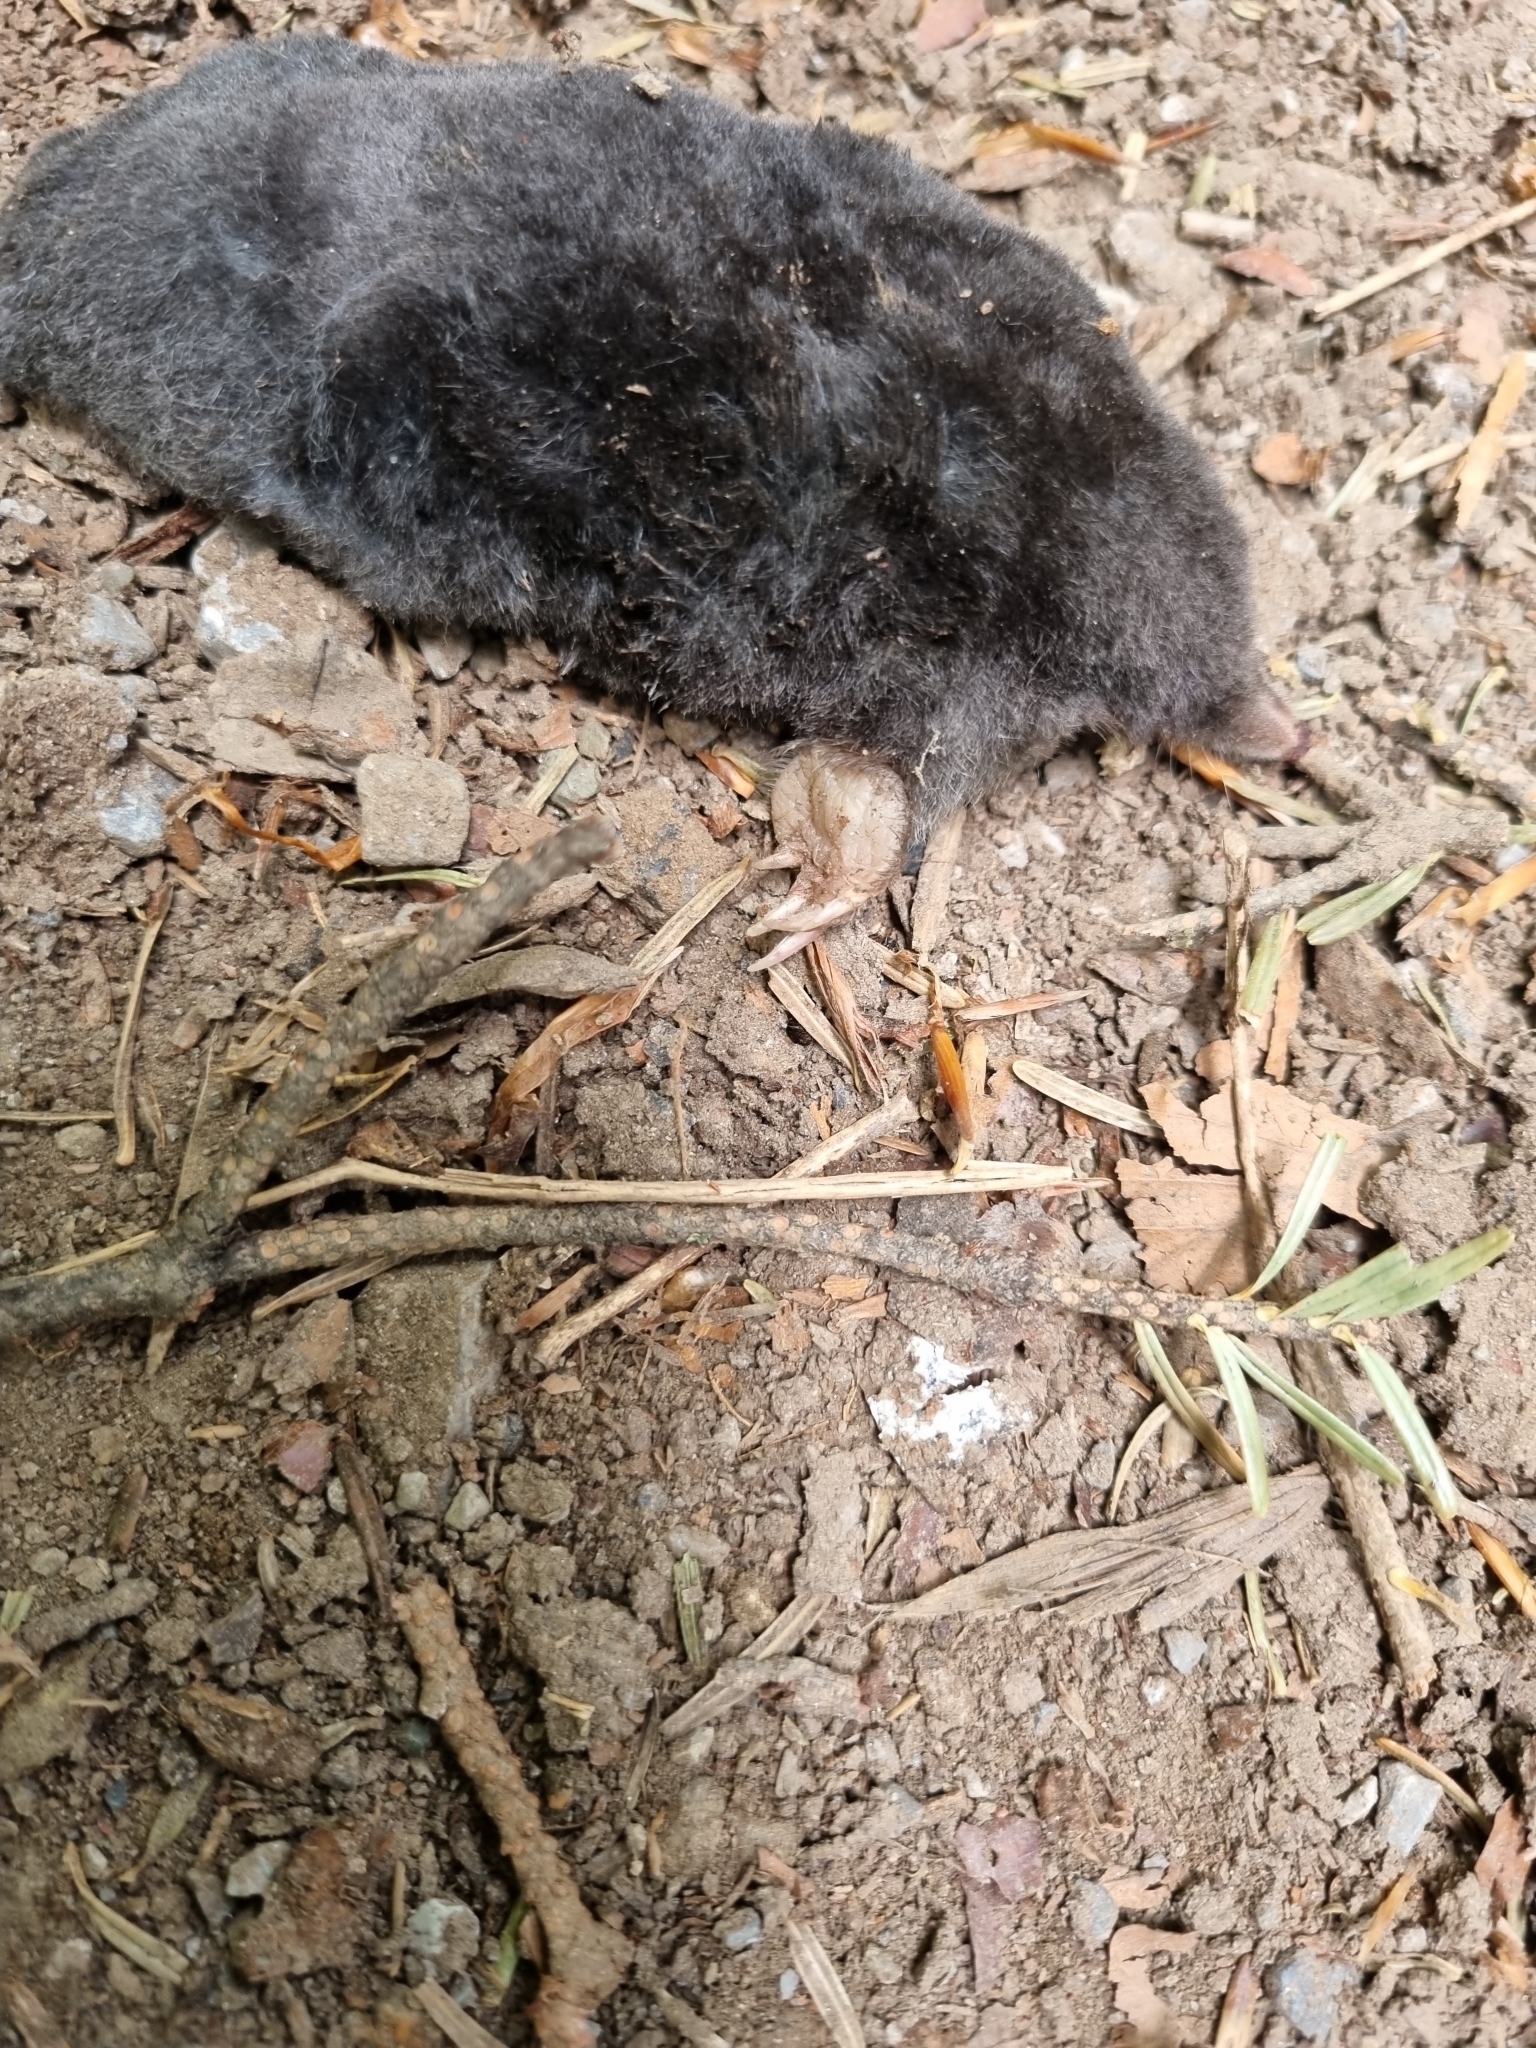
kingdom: Animalia
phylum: Chordata
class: Mammalia
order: Soricomorpha
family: Talpidae
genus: Talpa
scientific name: Talpa europaea
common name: European mole
